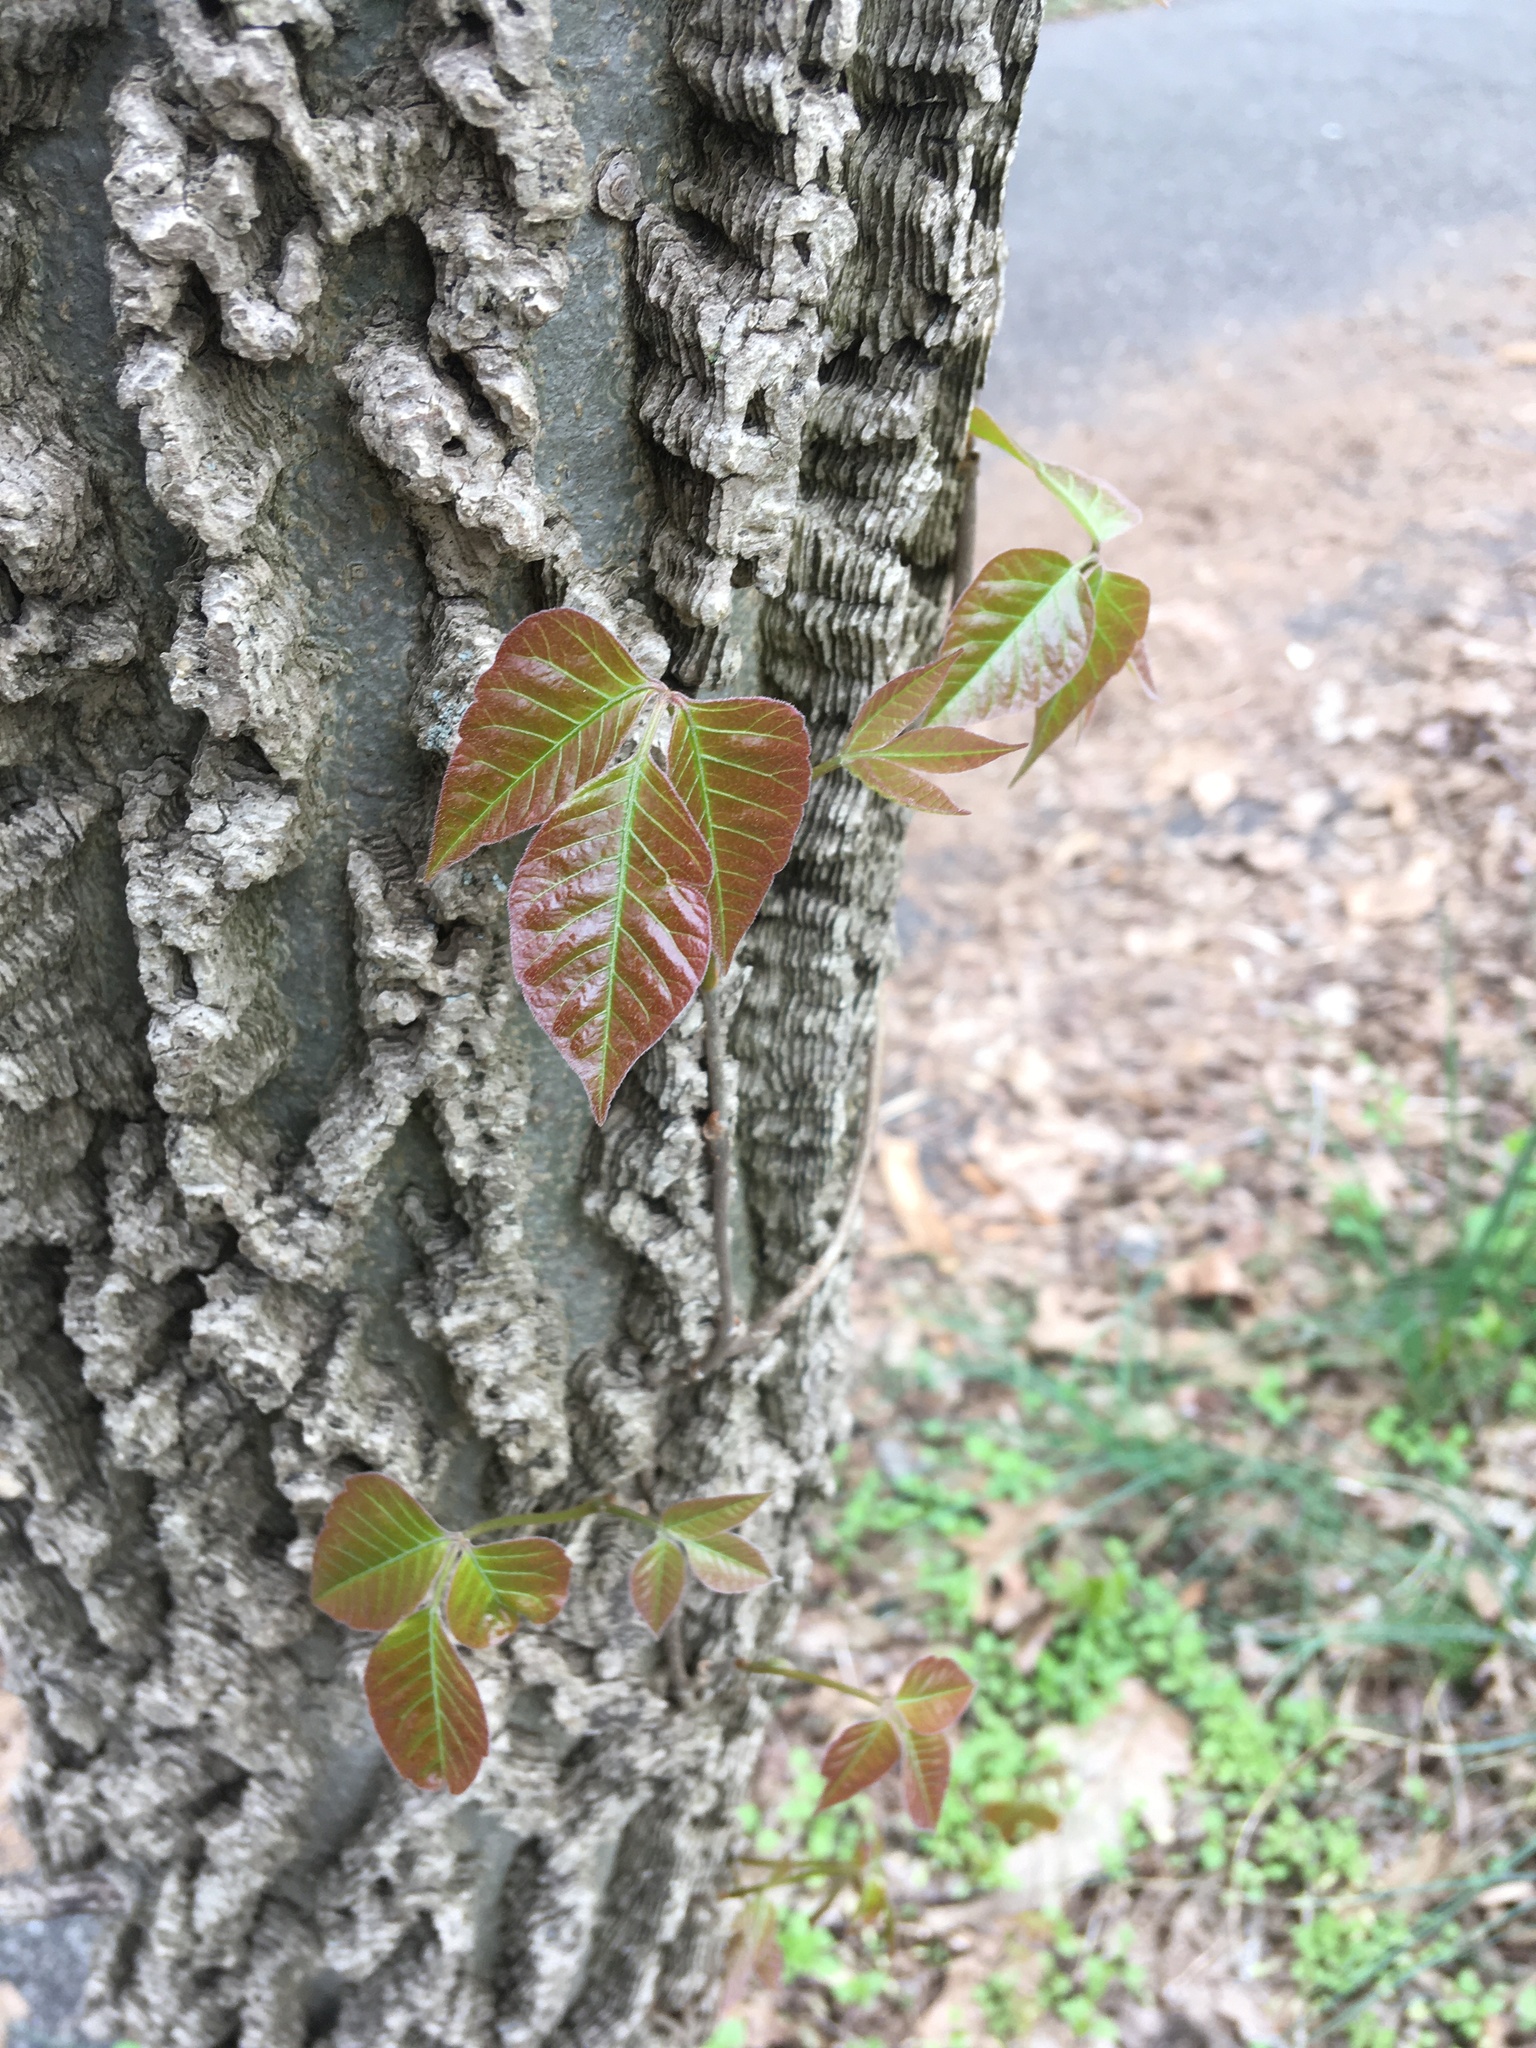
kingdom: Plantae
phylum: Tracheophyta
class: Magnoliopsida
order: Rosales
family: Cannabaceae
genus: Celtis
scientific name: Celtis occidentalis
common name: Common hackberry
